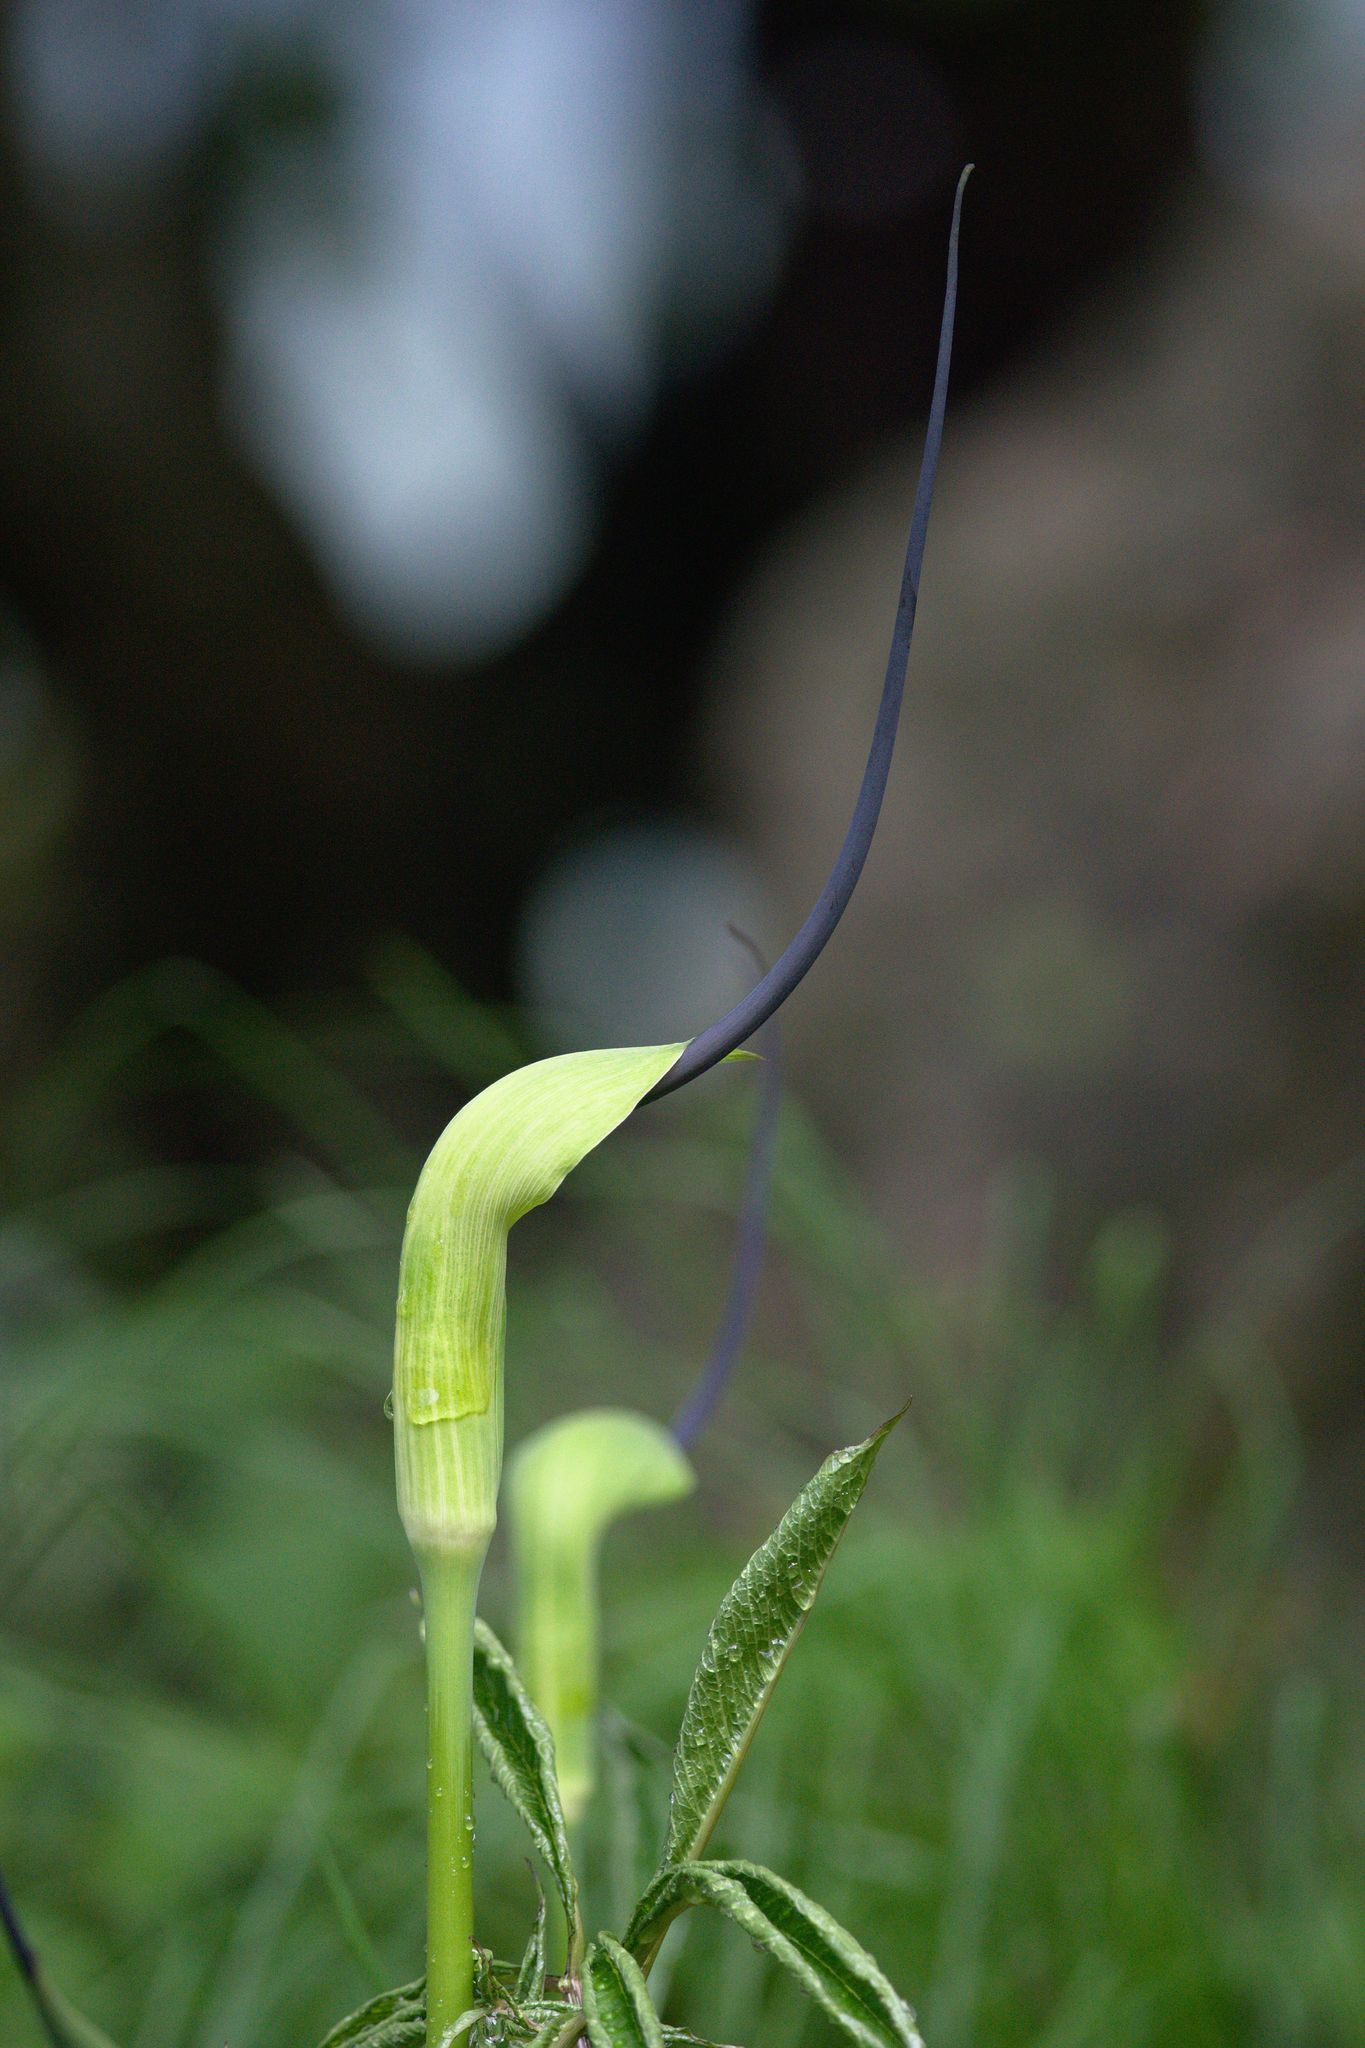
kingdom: Plantae
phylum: Tracheophyta
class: Liliopsida
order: Alismatales
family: Araceae
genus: Arisaema
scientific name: Arisaema tortuosum
